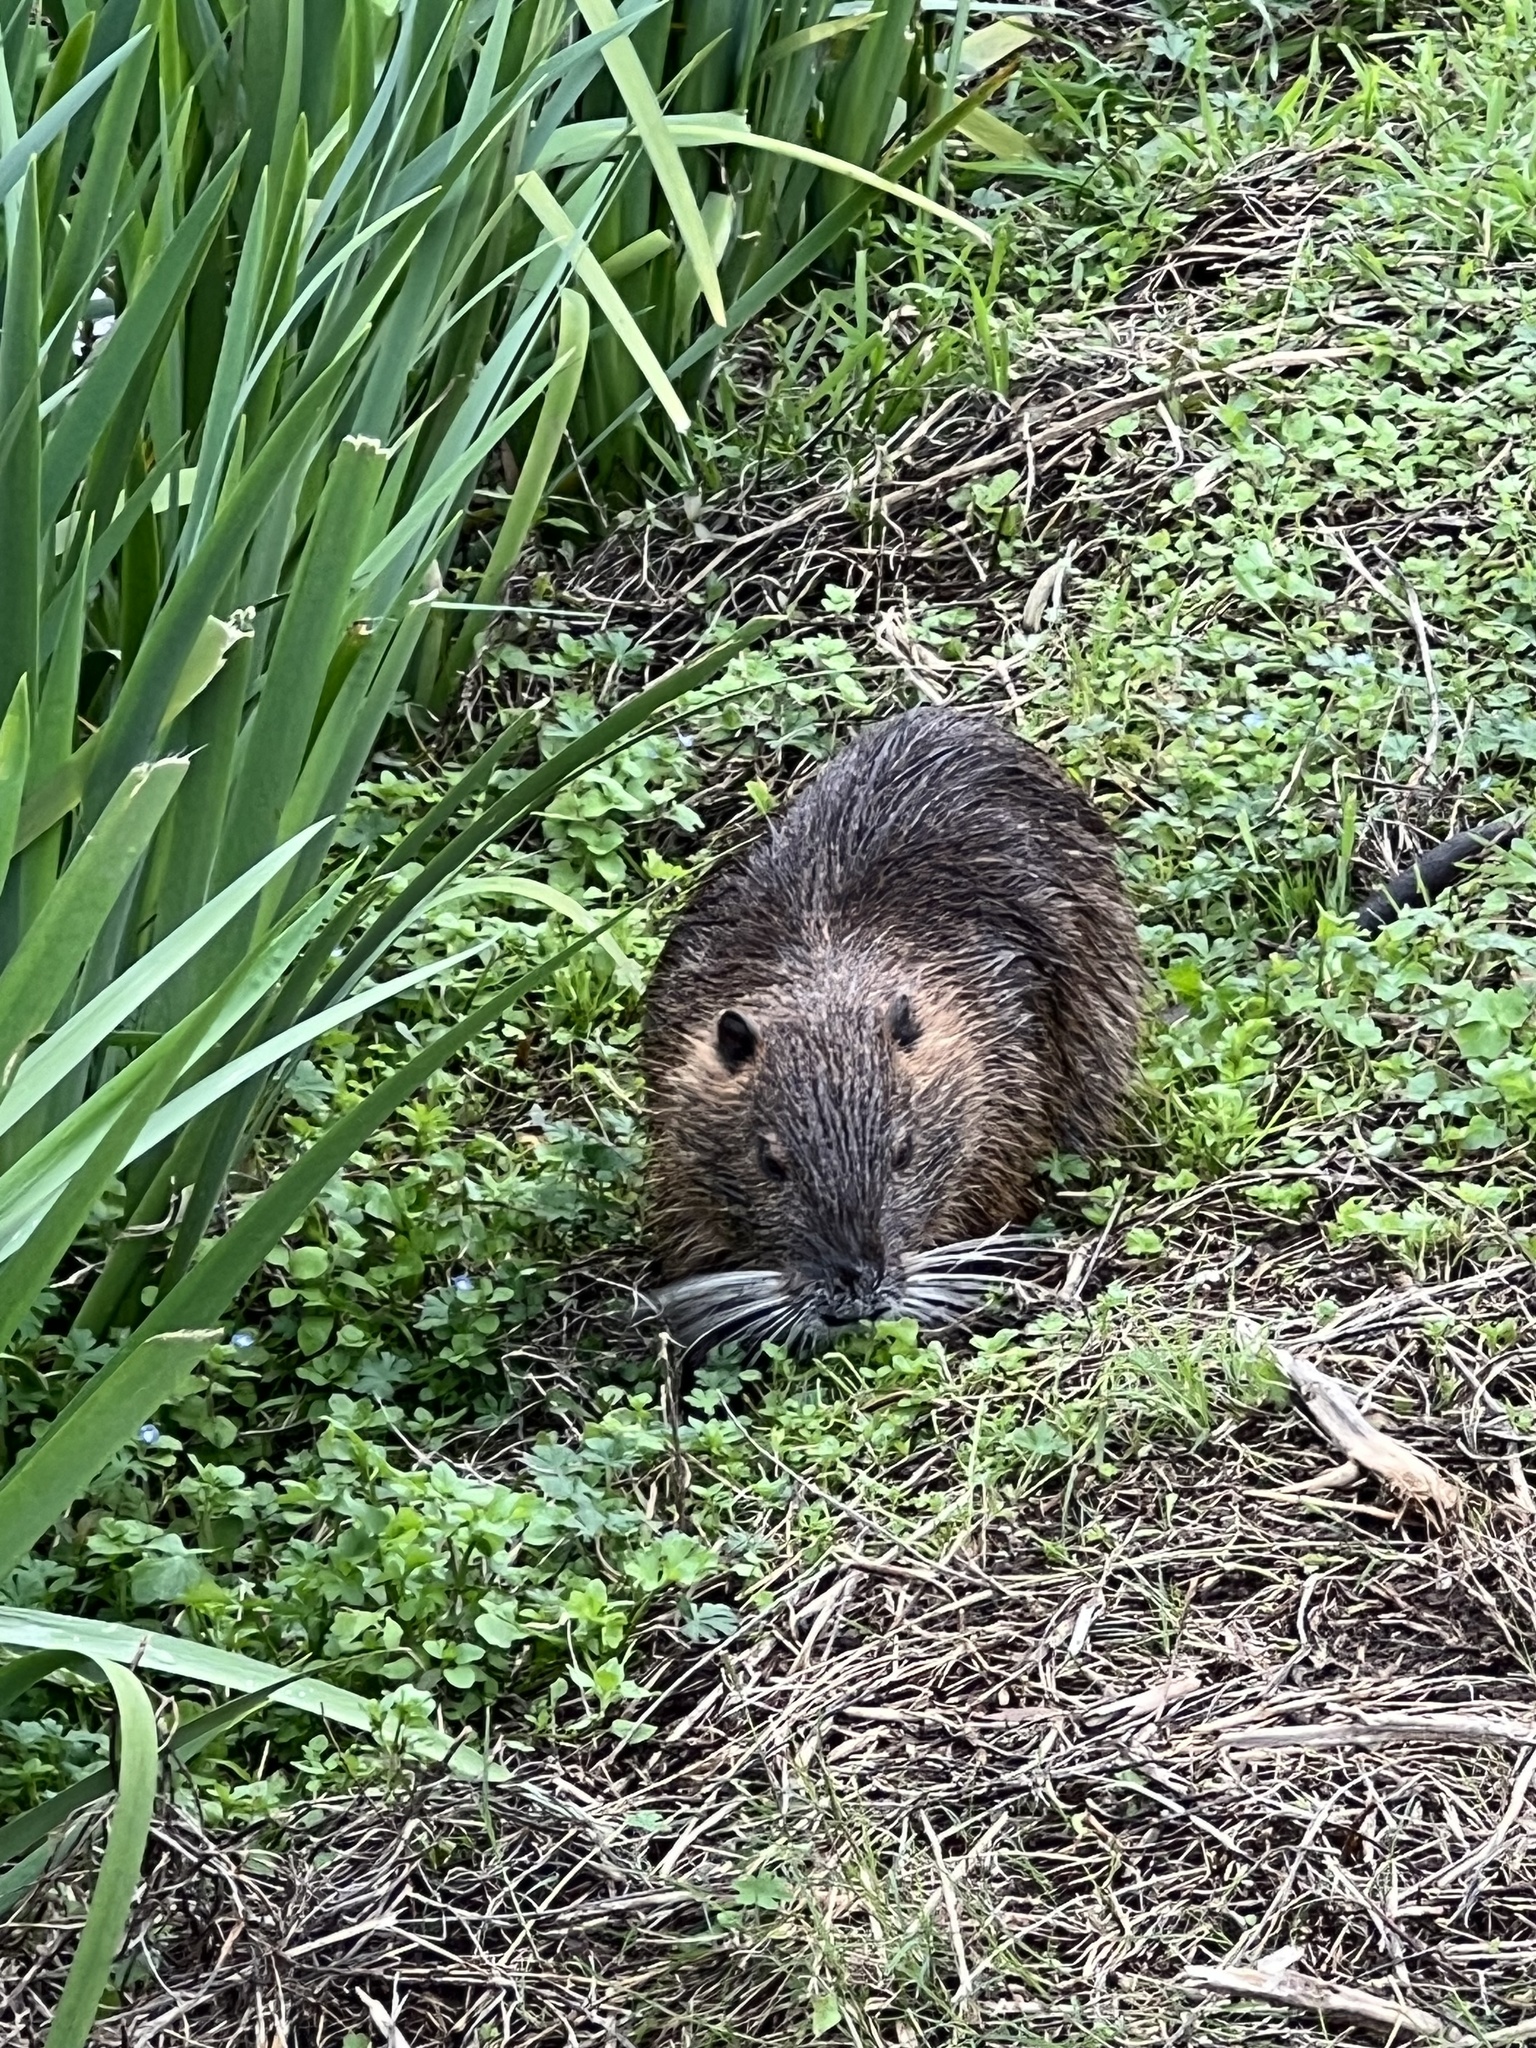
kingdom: Animalia
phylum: Chordata
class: Mammalia
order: Rodentia
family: Myocastoridae
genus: Myocastor
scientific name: Myocastor coypus
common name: Coypu
